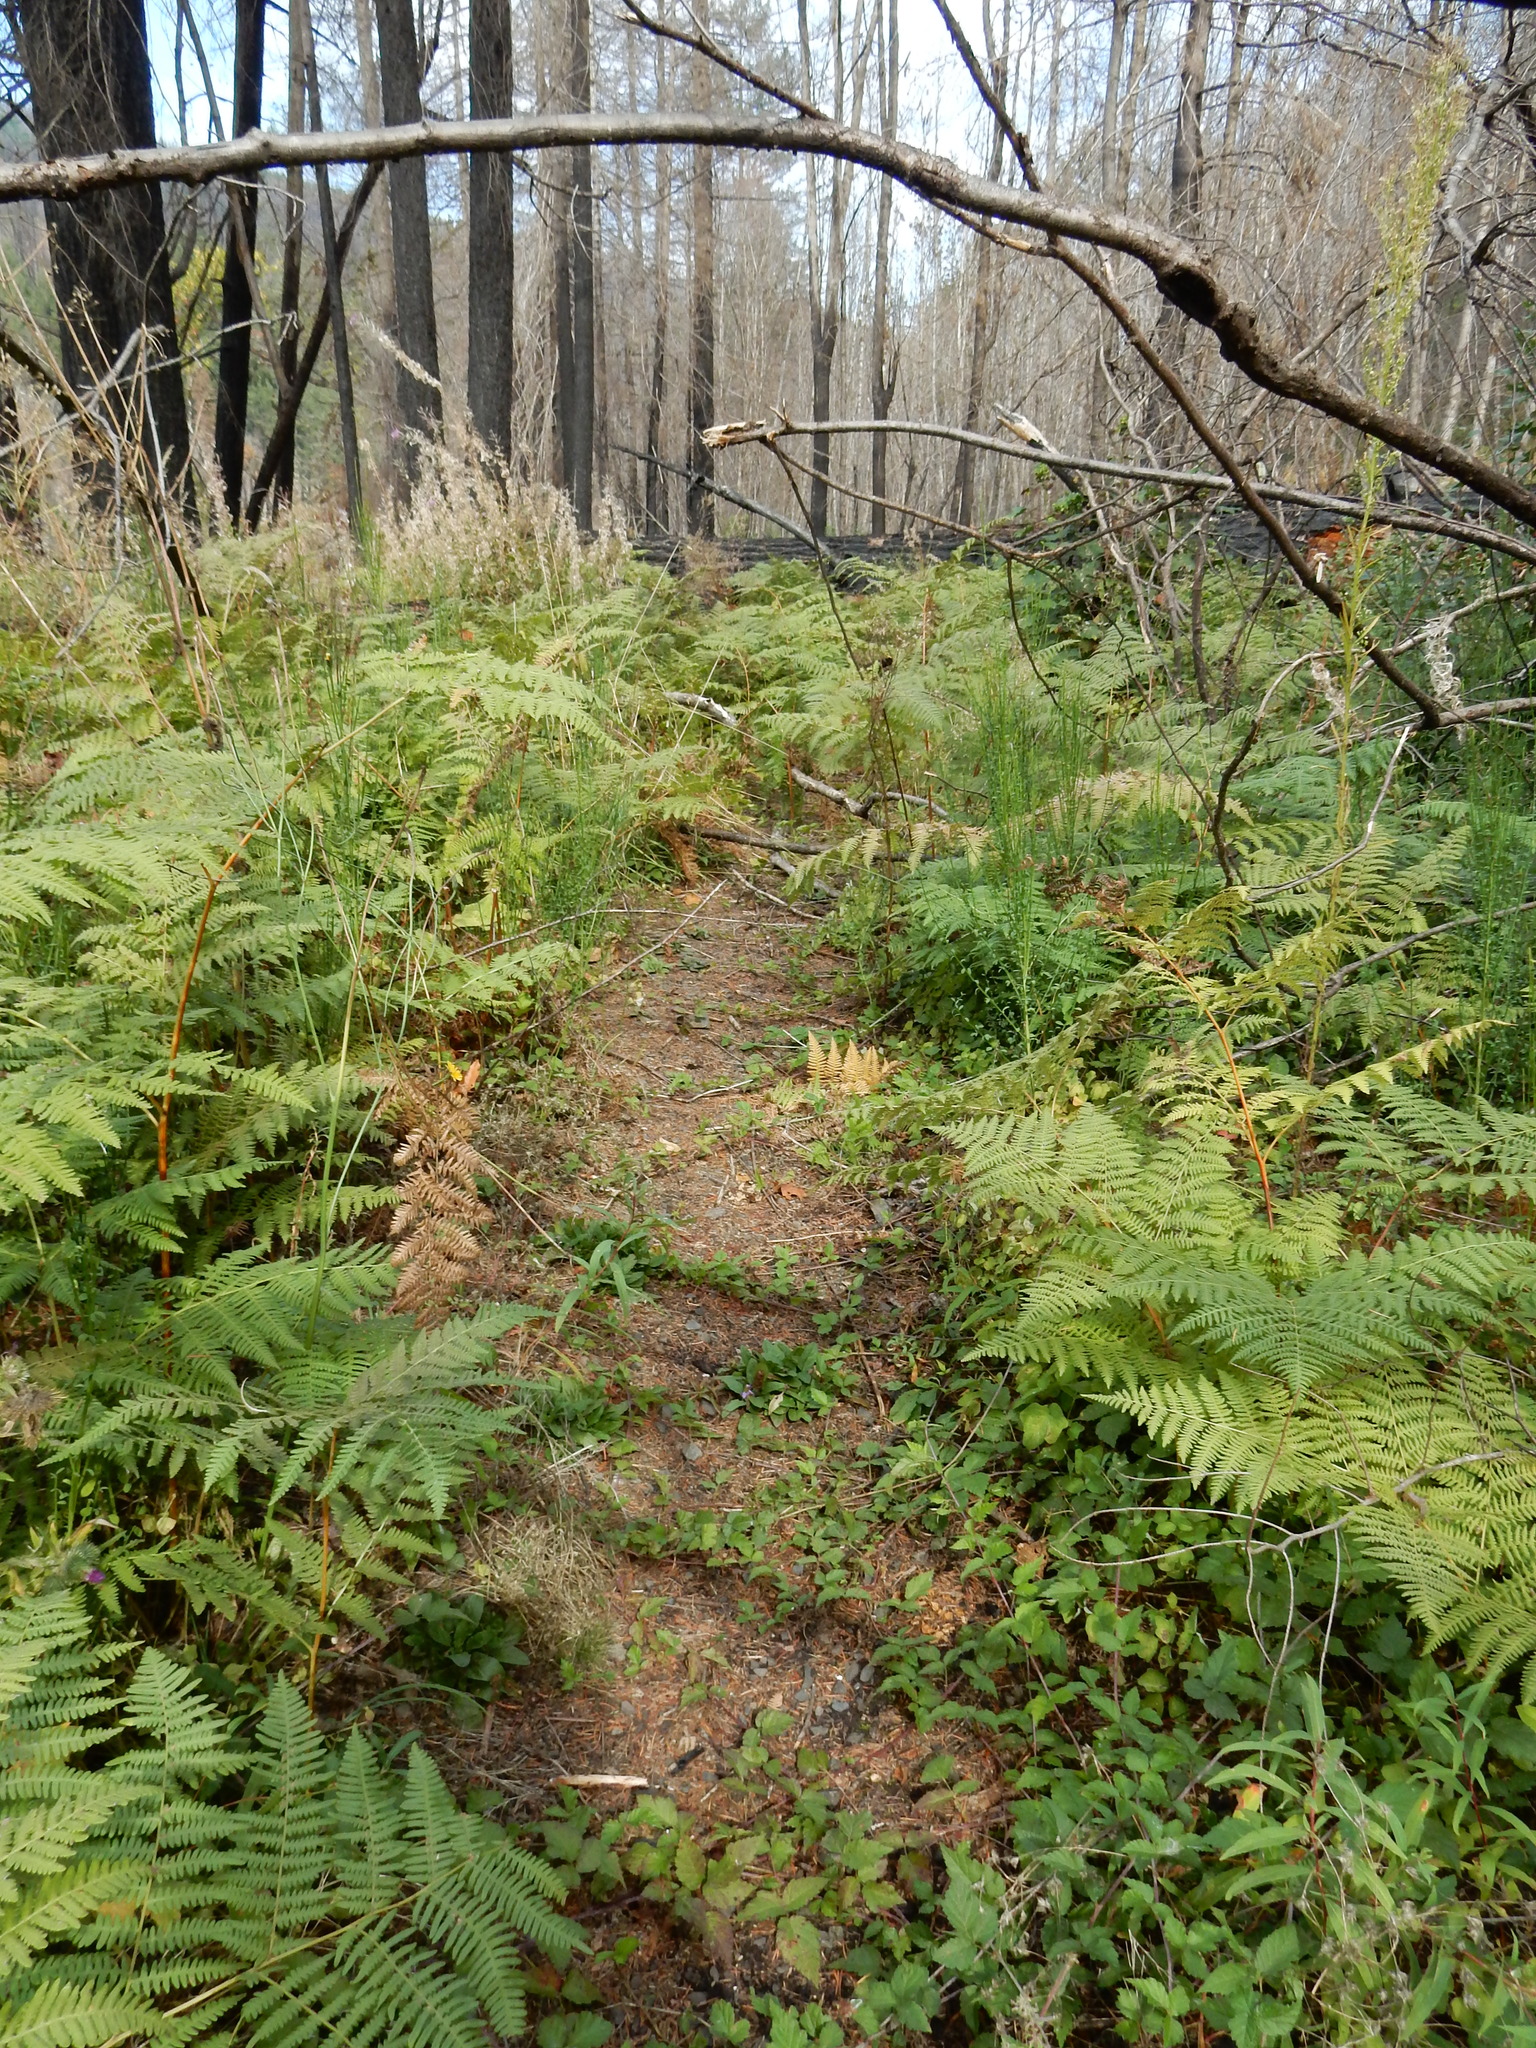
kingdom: Plantae
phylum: Tracheophyta
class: Polypodiopsida
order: Polypodiales
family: Dennstaedtiaceae
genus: Pteridium
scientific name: Pteridium aquilinum
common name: Bracken
